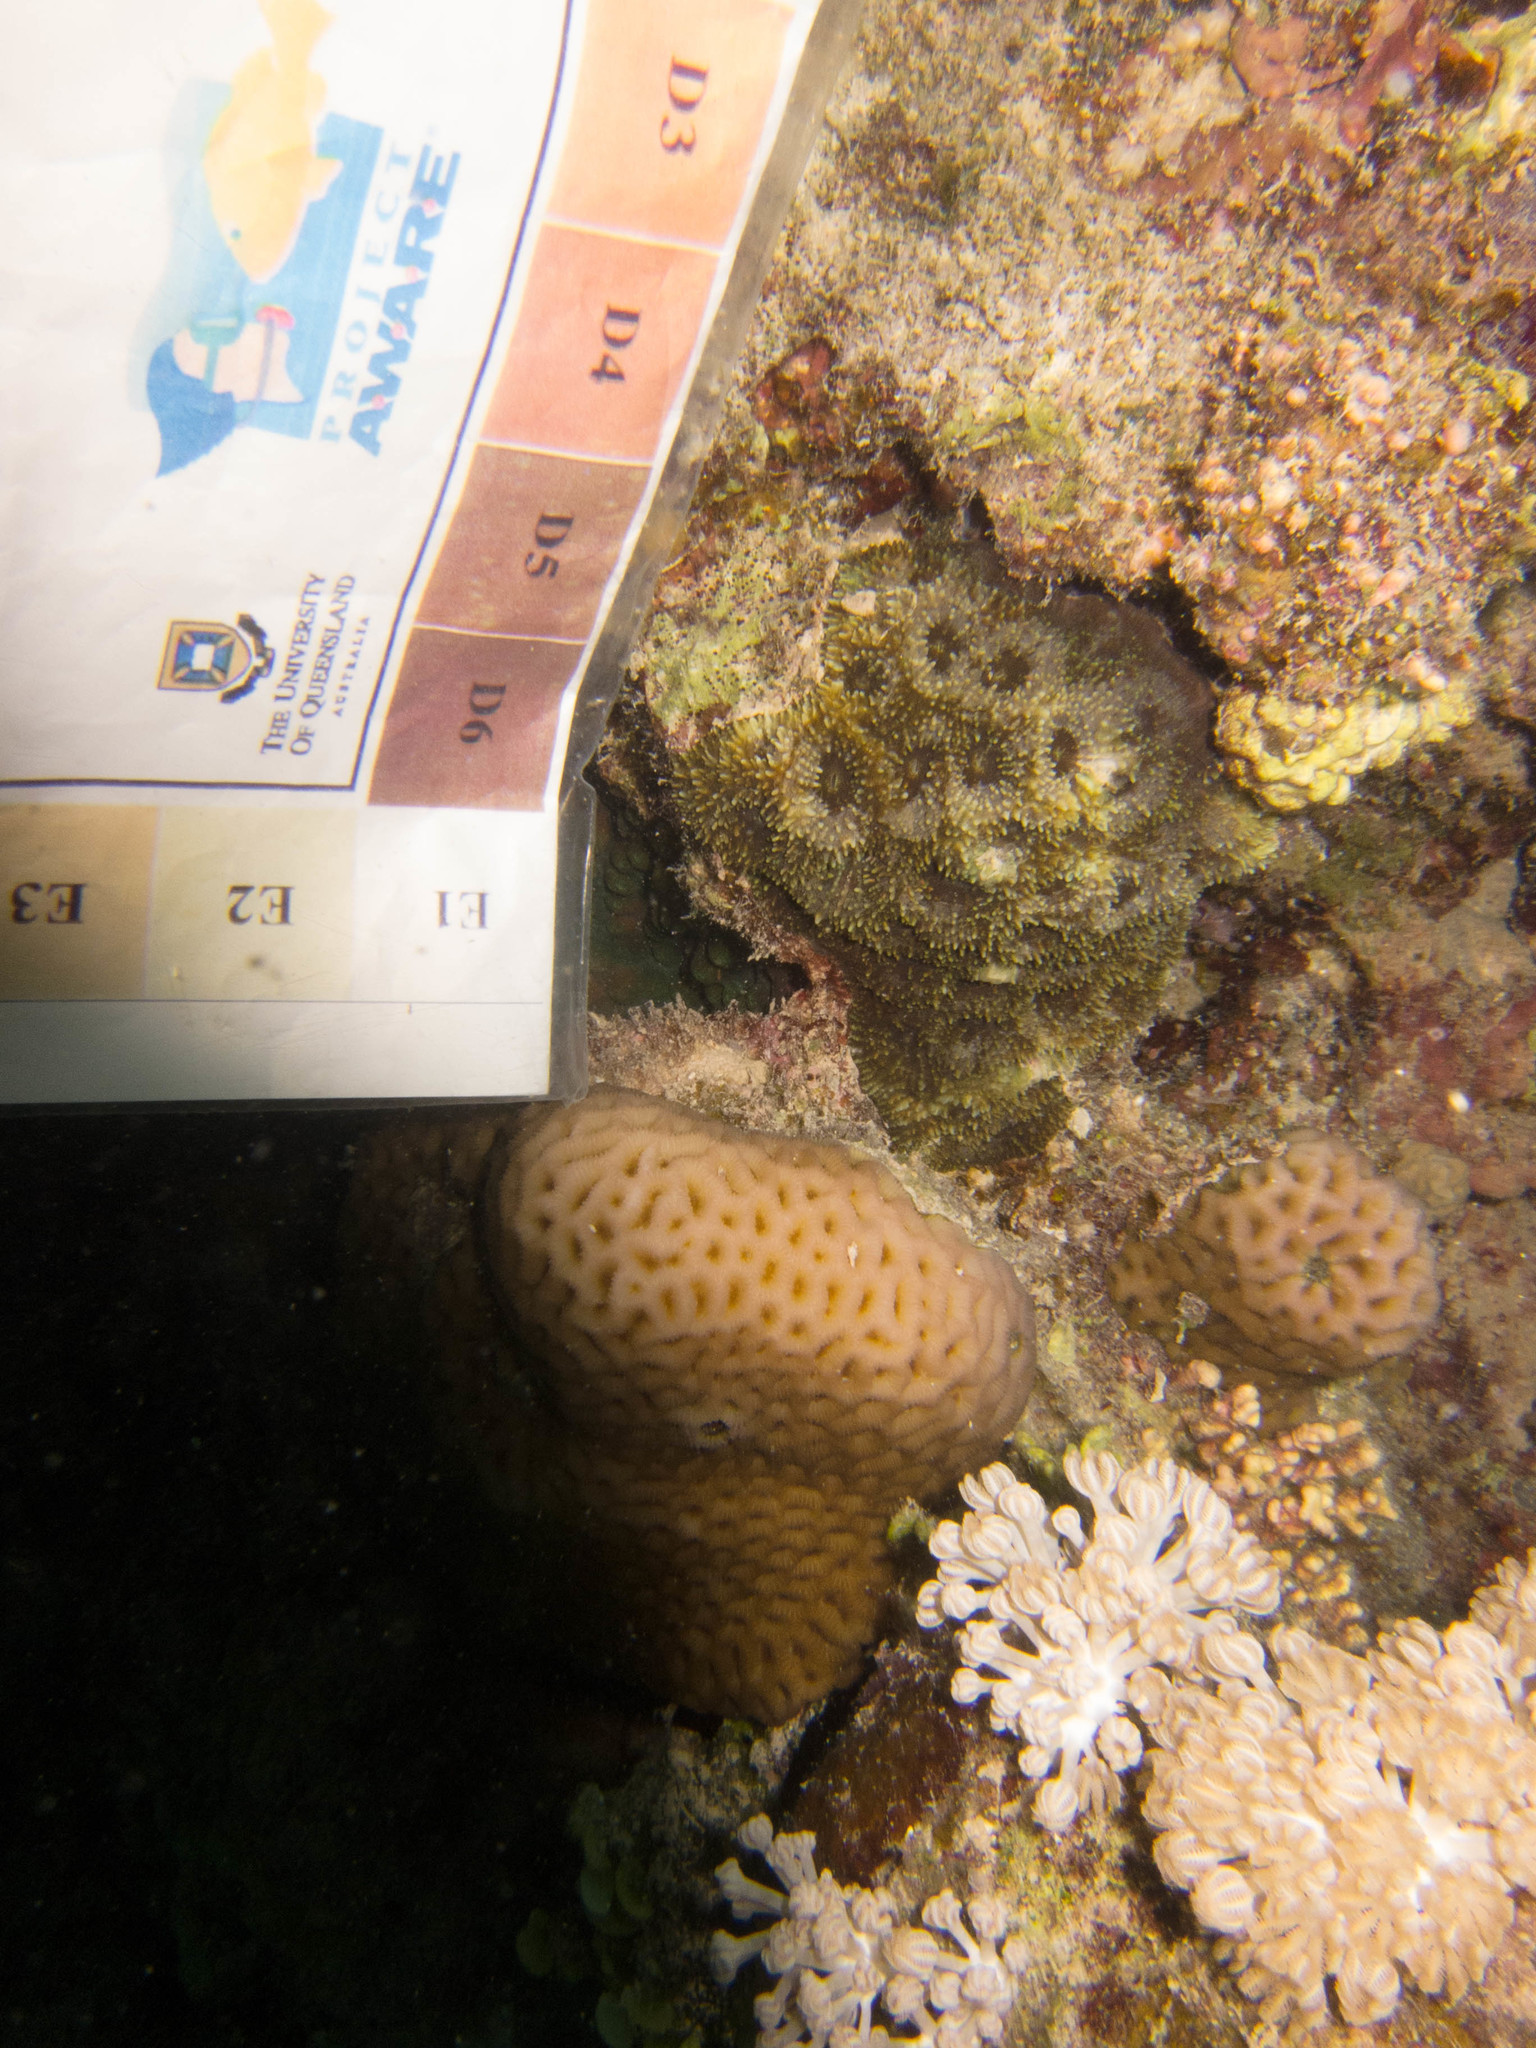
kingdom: Animalia
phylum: Cnidaria
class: Anthozoa
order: Scleractinia
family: Merulinidae
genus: Goniastrea
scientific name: Goniastrea pectinata
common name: Lesser star coral
